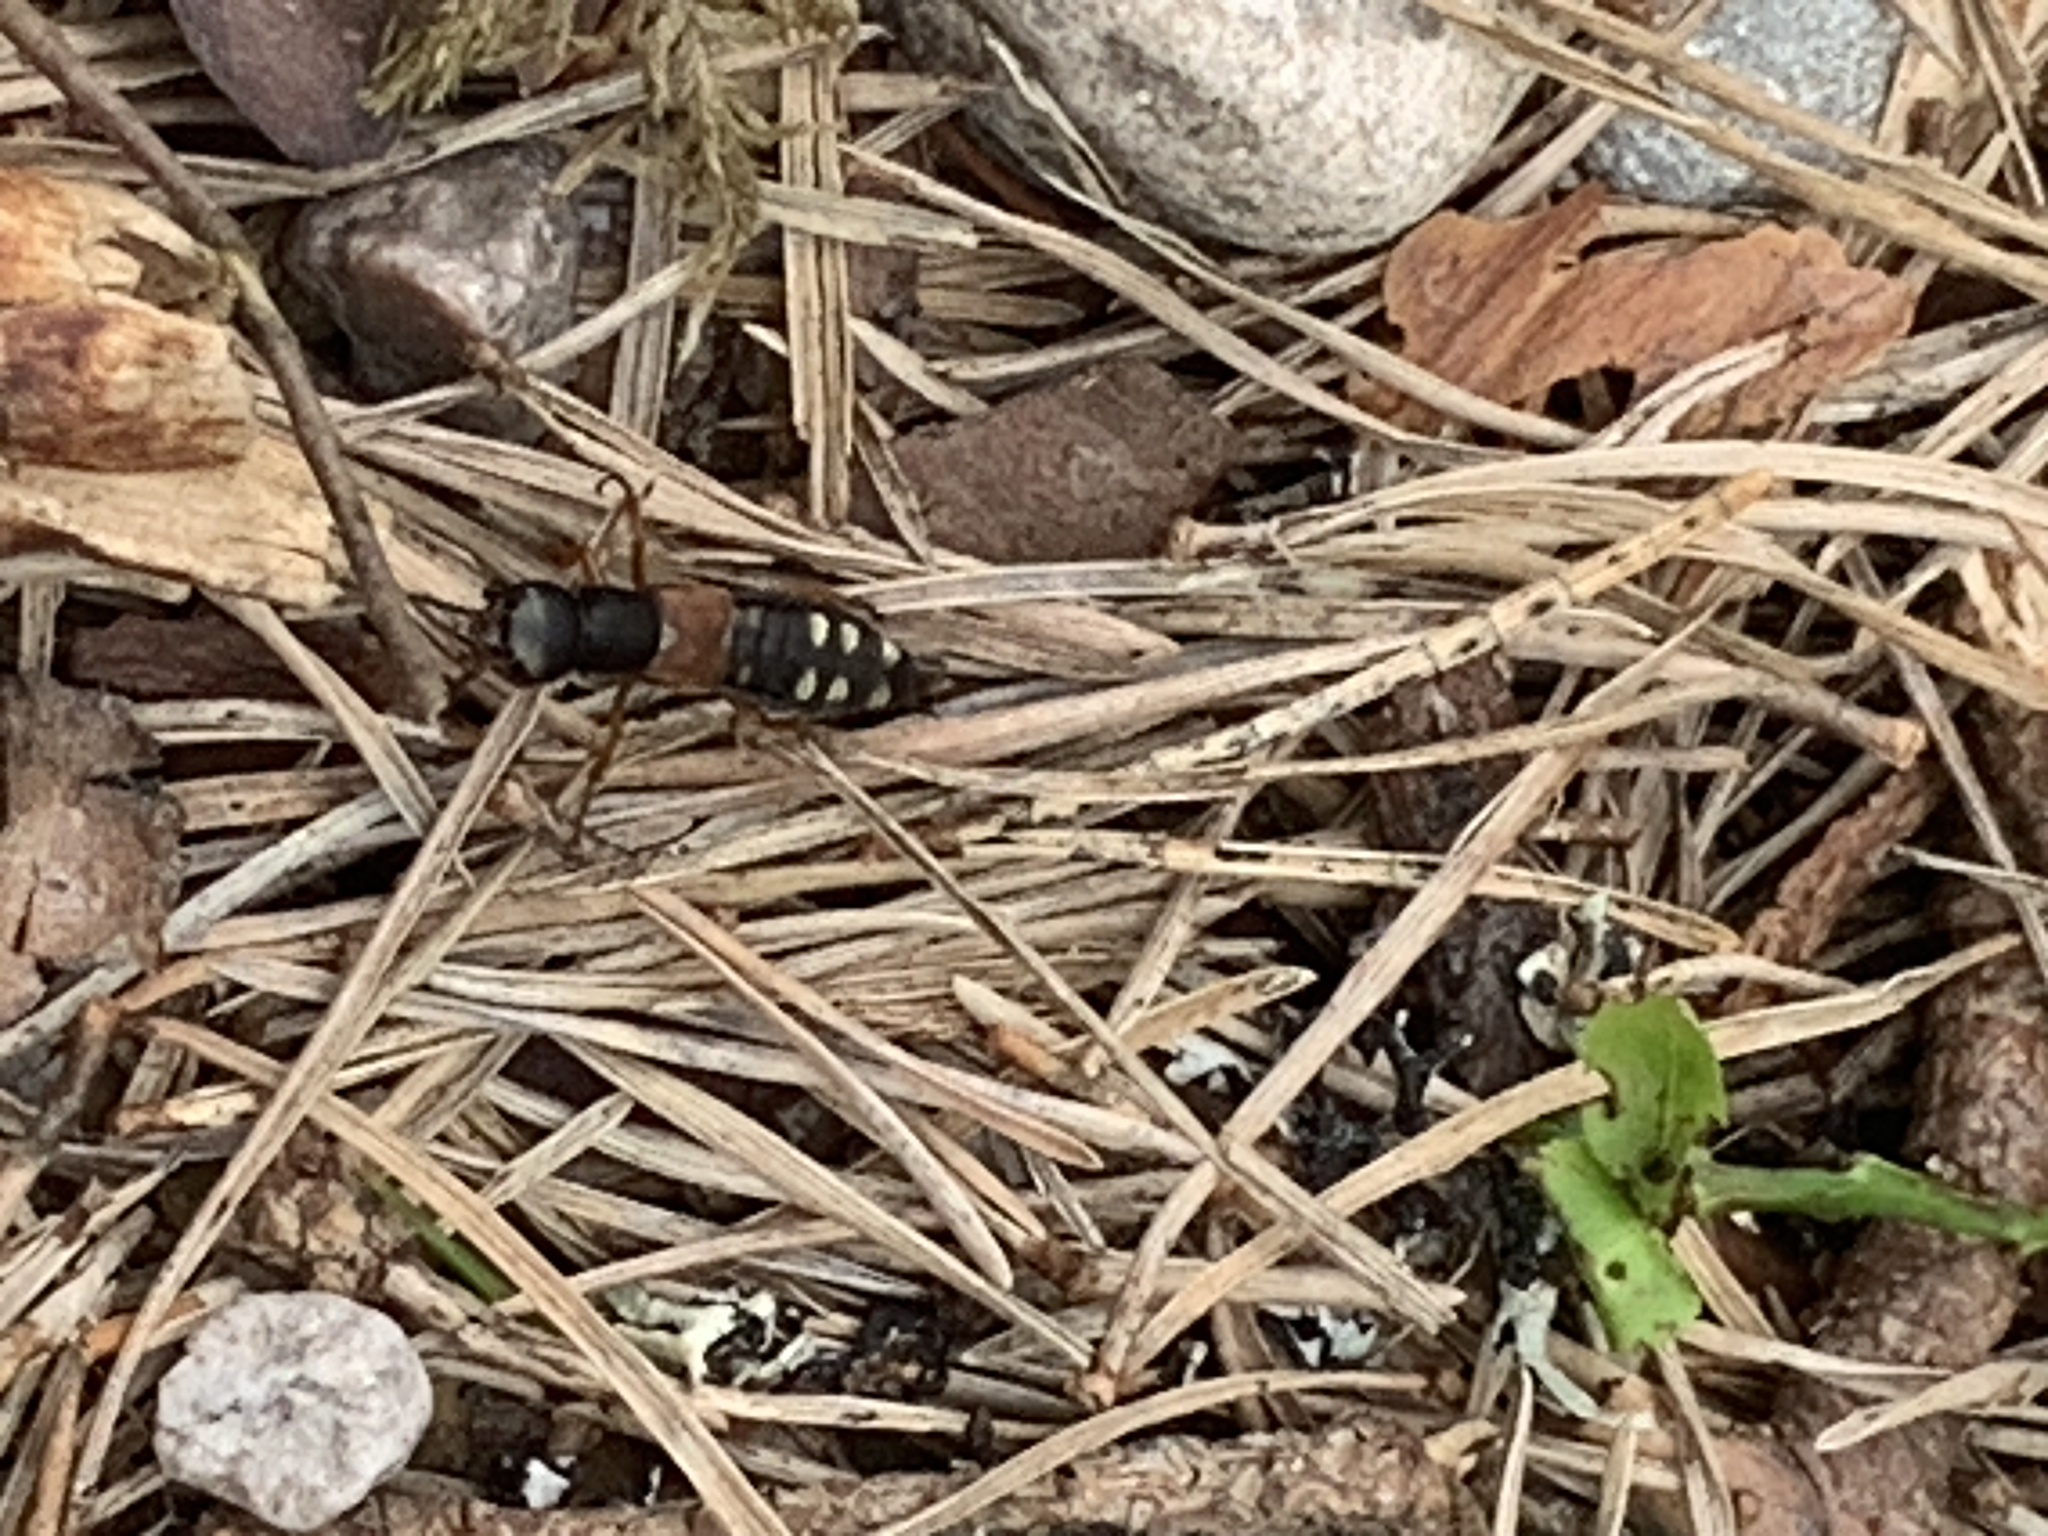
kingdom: Animalia
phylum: Arthropoda
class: Insecta
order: Coleoptera
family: Staphylinidae
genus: Staphylinus
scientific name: Staphylinus erythropterus
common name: Staph beetle
